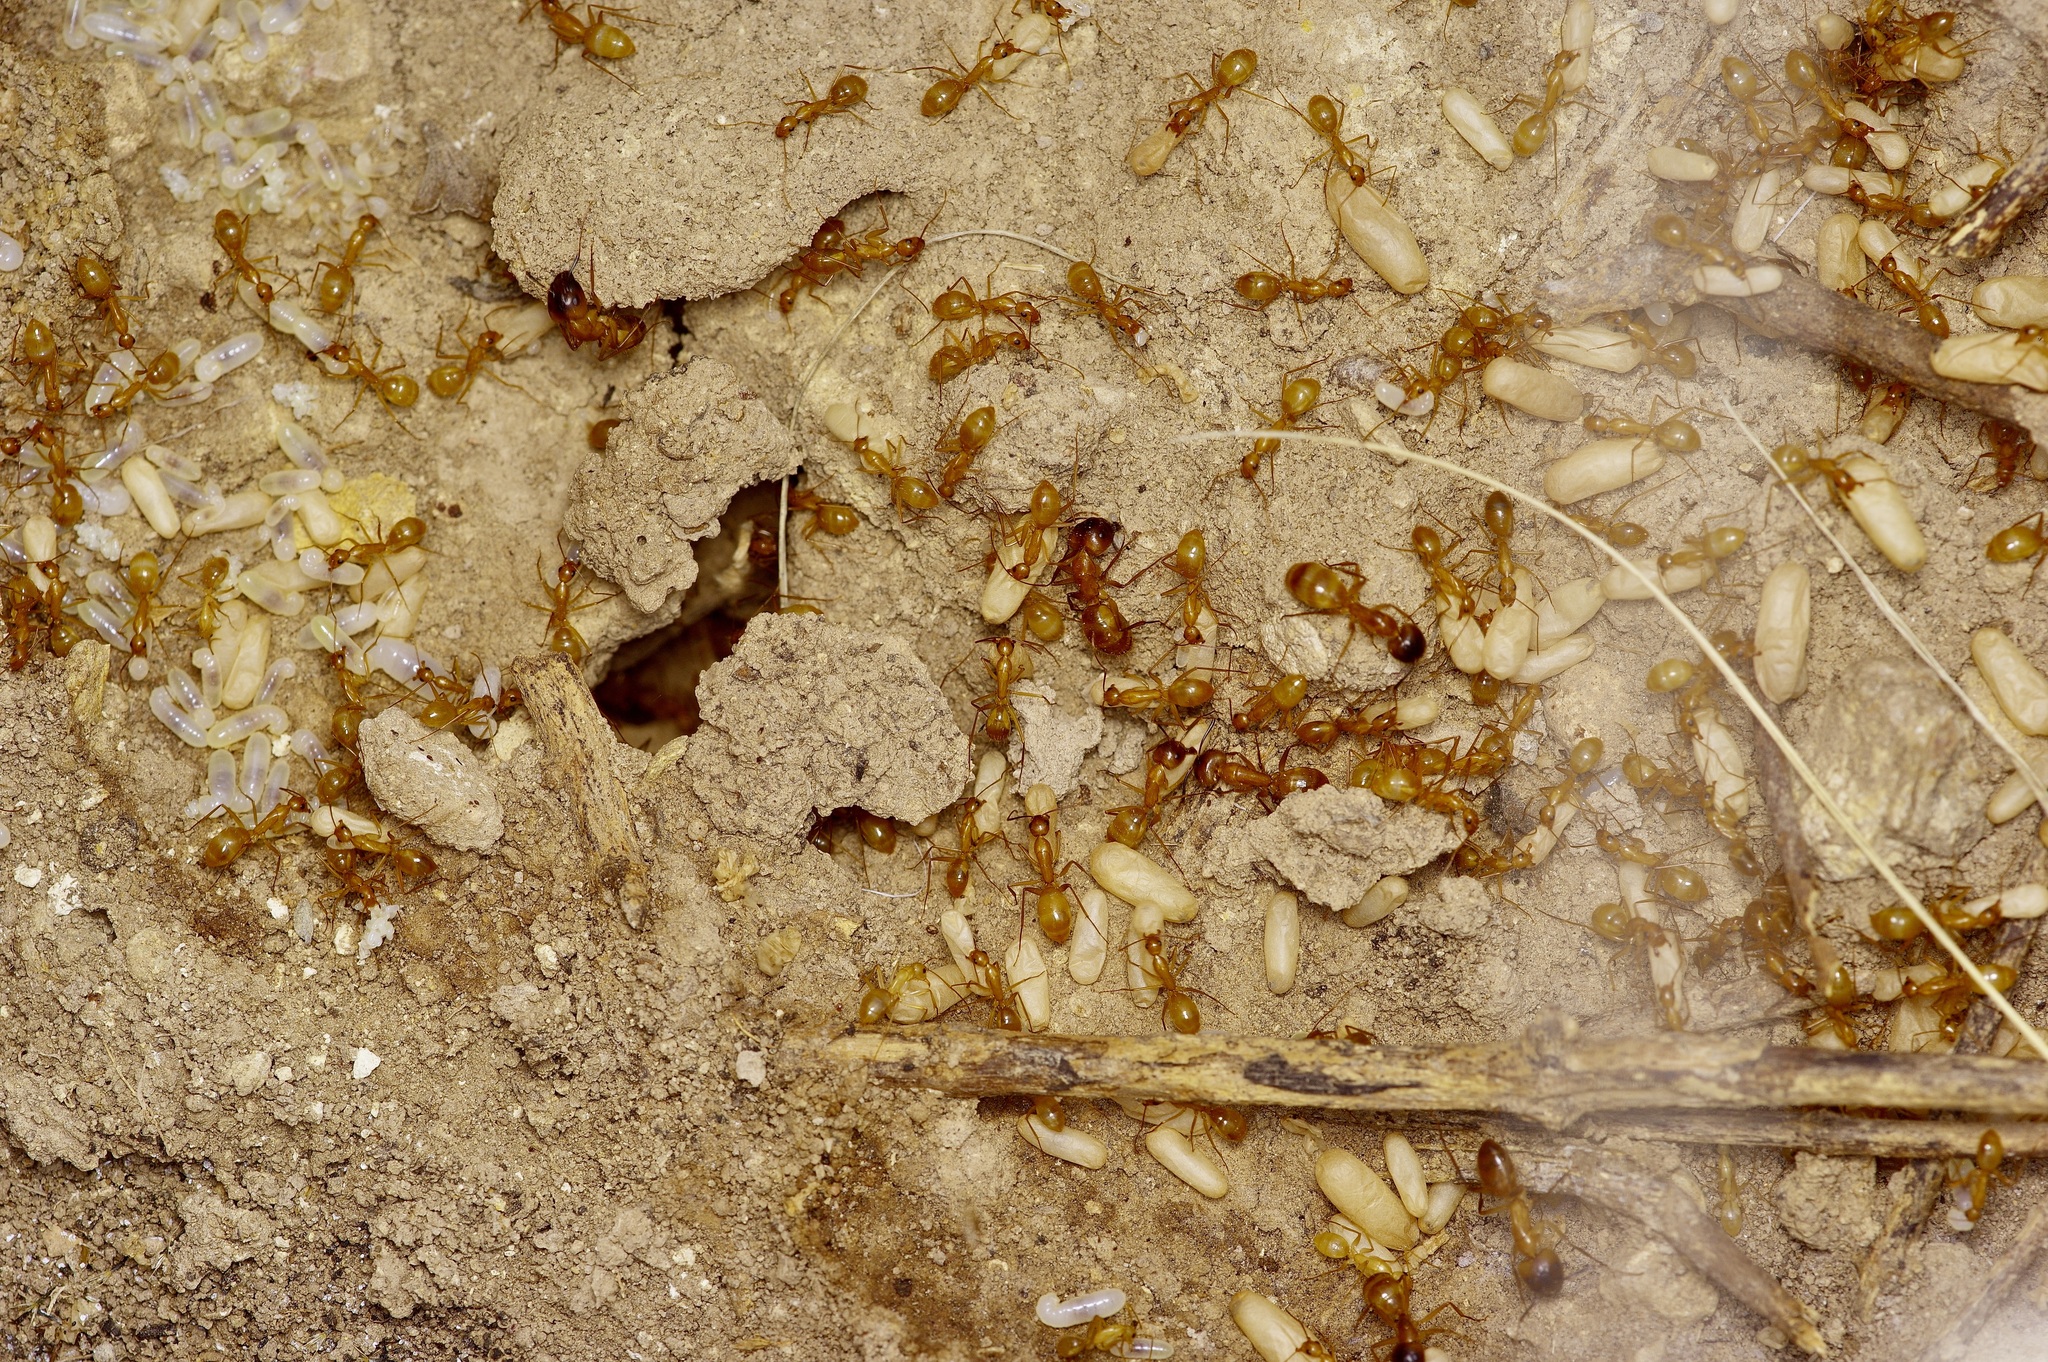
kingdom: Animalia
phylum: Arthropoda
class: Insecta
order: Hymenoptera
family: Formicidae
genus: Camponotus
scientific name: Camponotus festinatus
